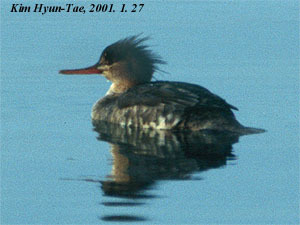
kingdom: Animalia
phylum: Chordata
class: Aves
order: Anseriformes
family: Anatidae
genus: Mergus
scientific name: Mergus serrator
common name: Red-breasted merganser
